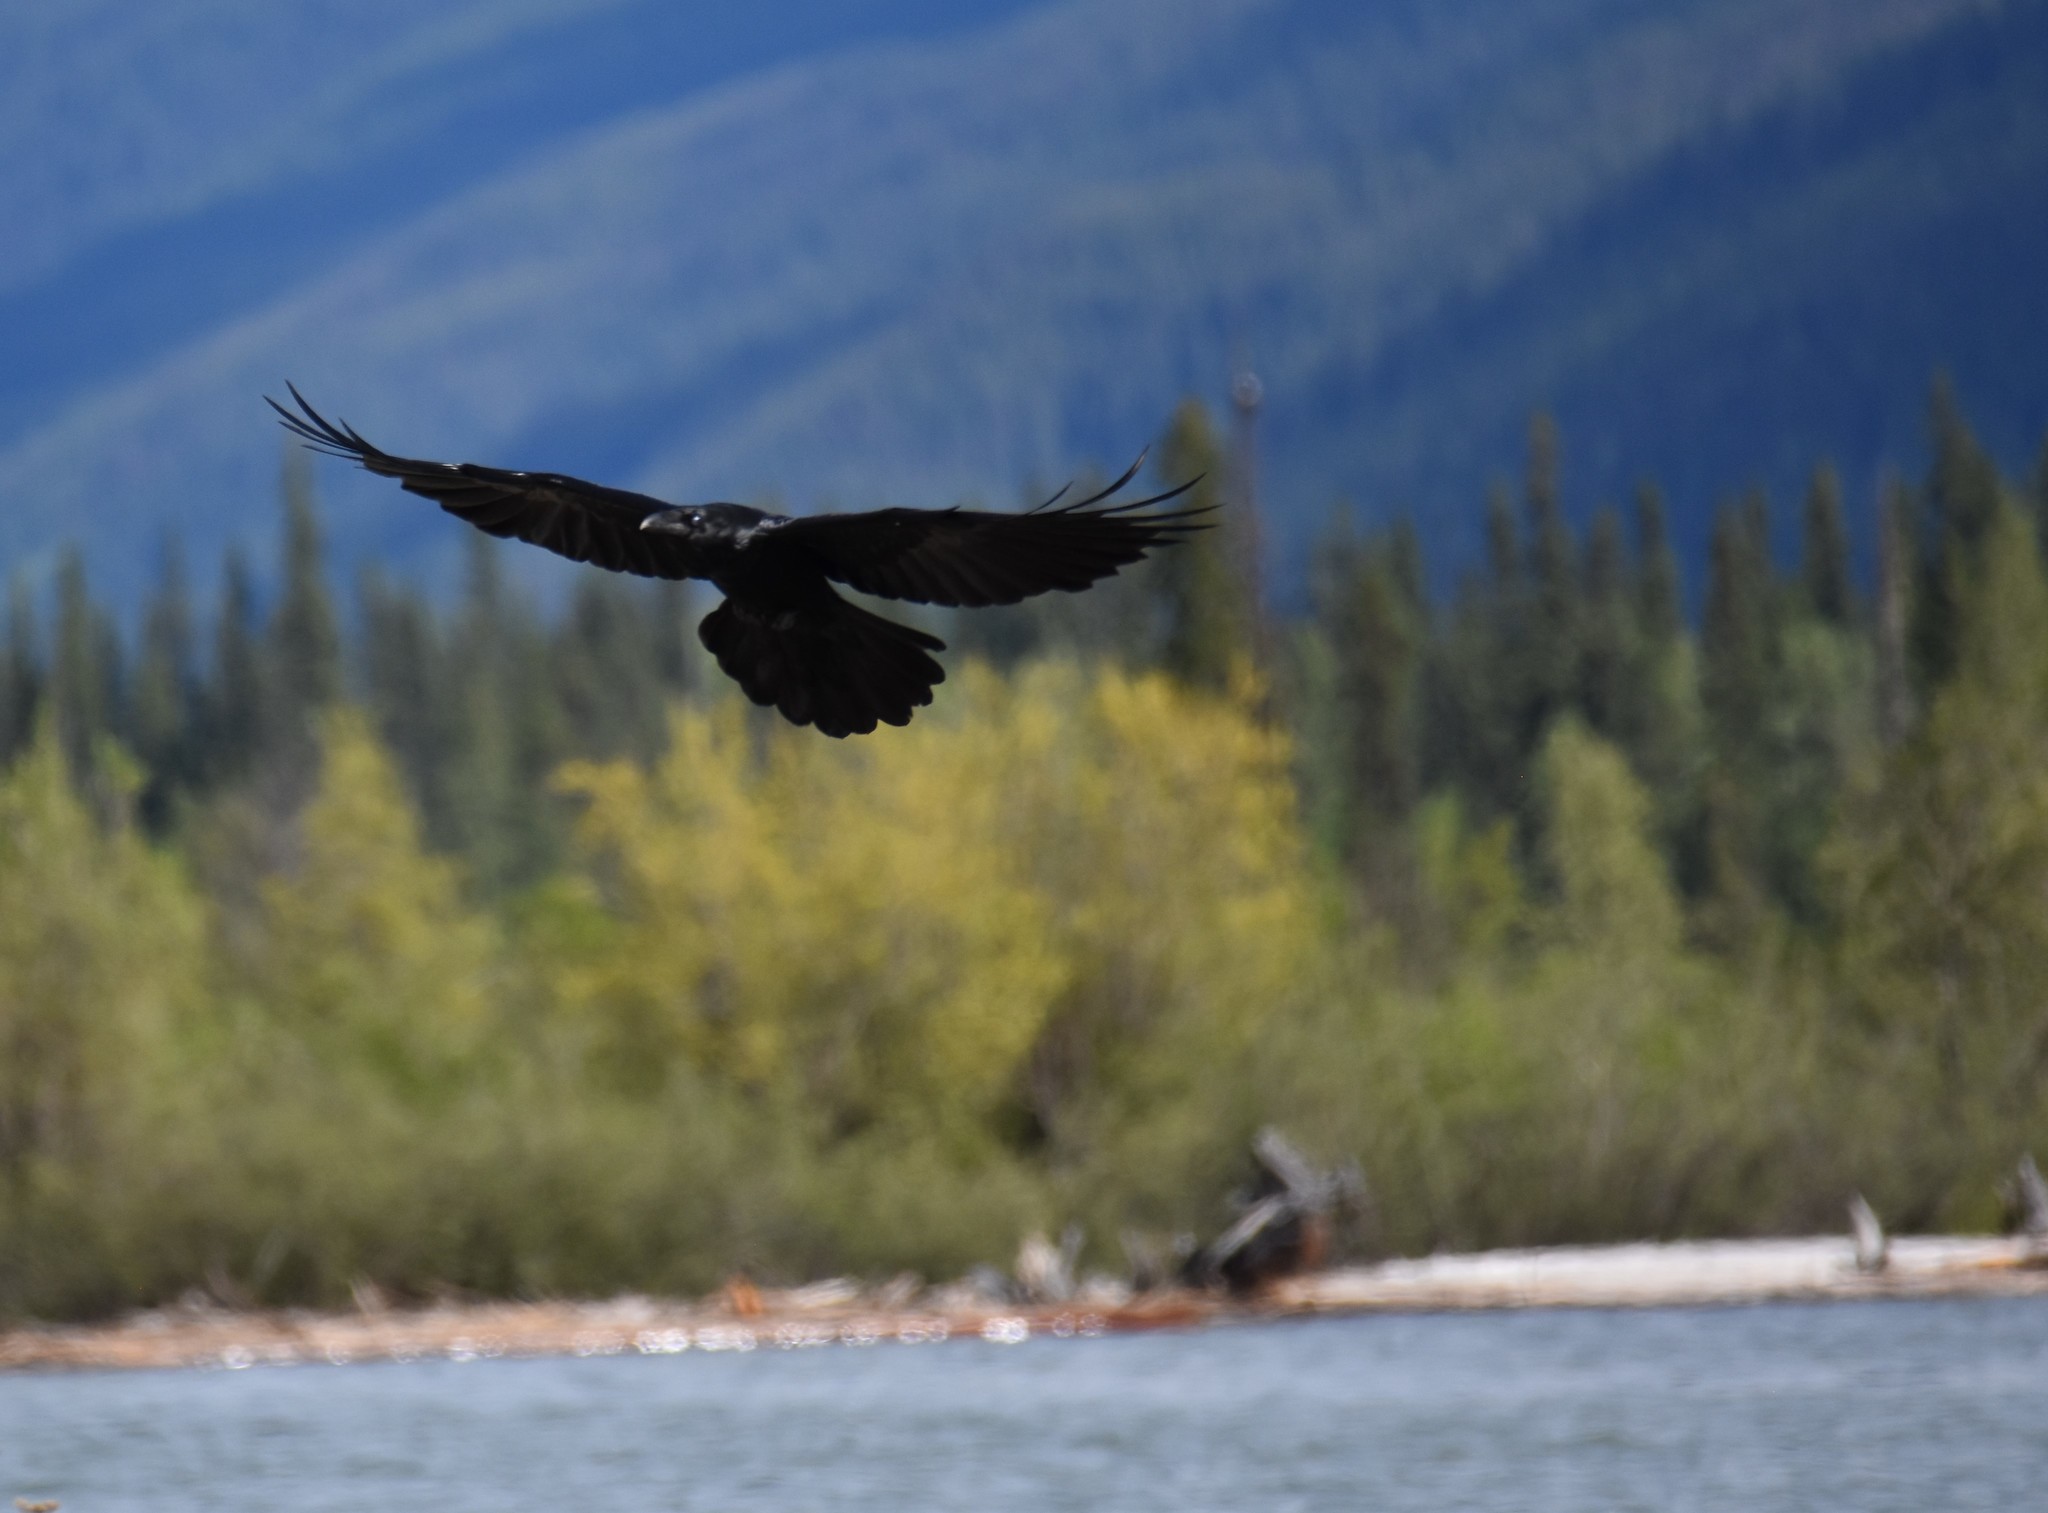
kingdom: Animalia
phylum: Chordata
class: Aves
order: Passeriformes
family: Corvidae
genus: Corvus
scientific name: Corvus corax
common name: Common raven
